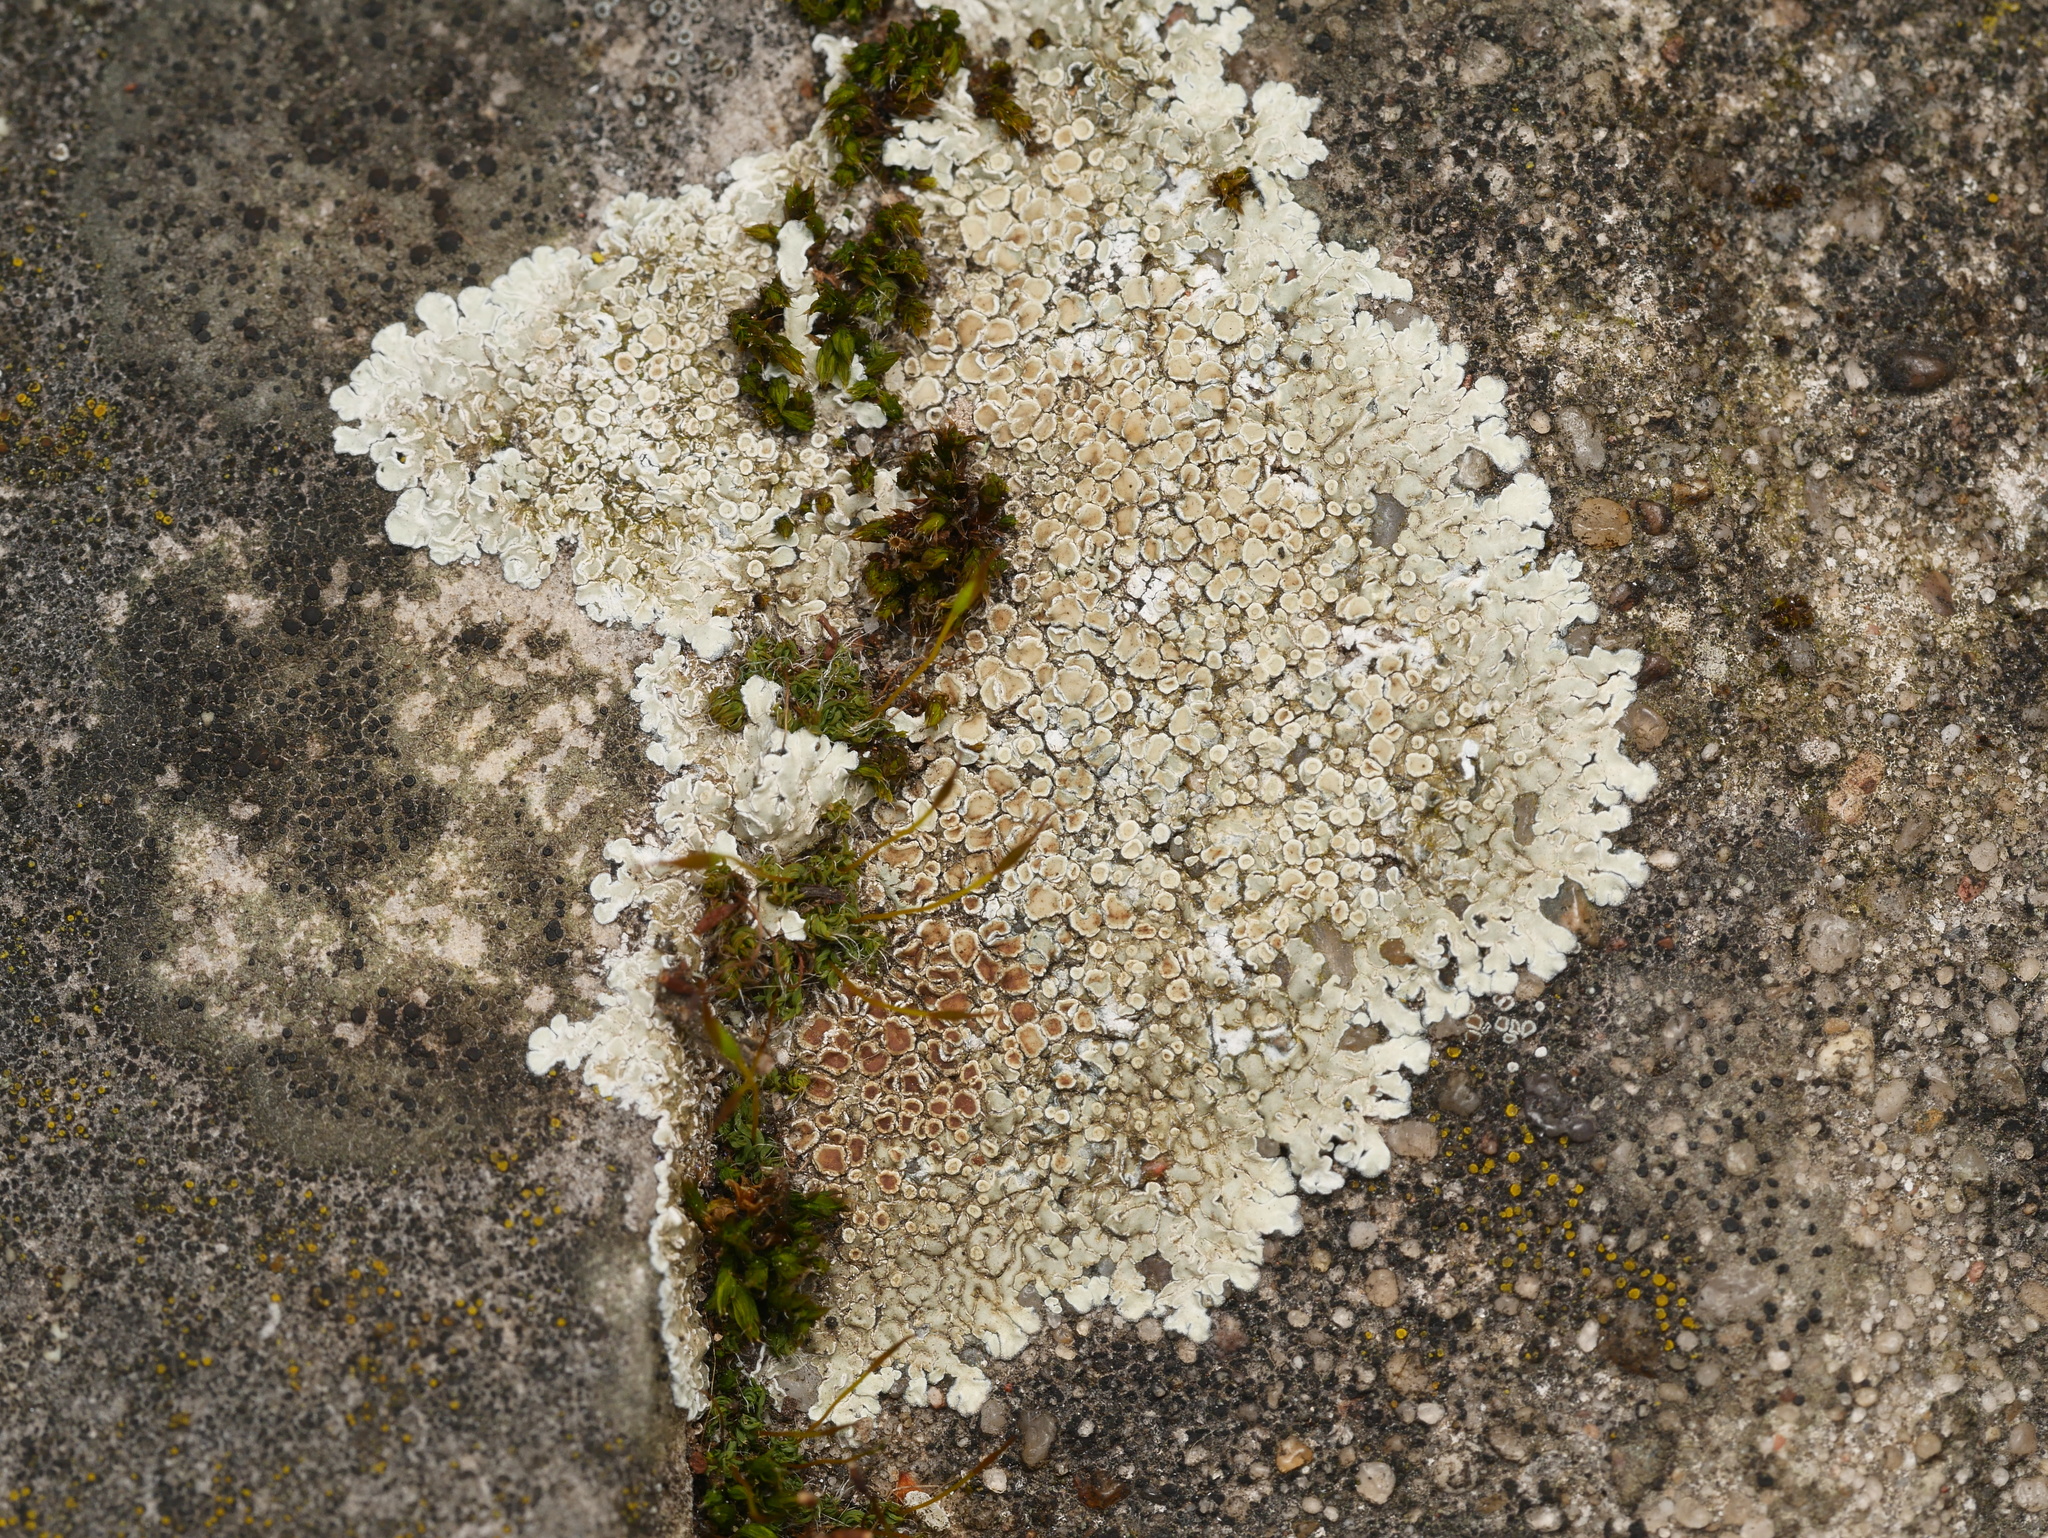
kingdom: Fungi
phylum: Ascomycota
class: Lecanoromycetes
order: Lecanorales
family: Lecanoraceae
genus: Protoparmeliopsis
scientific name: Protoparmeliopsis muralis
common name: Stonewall rim lichen
